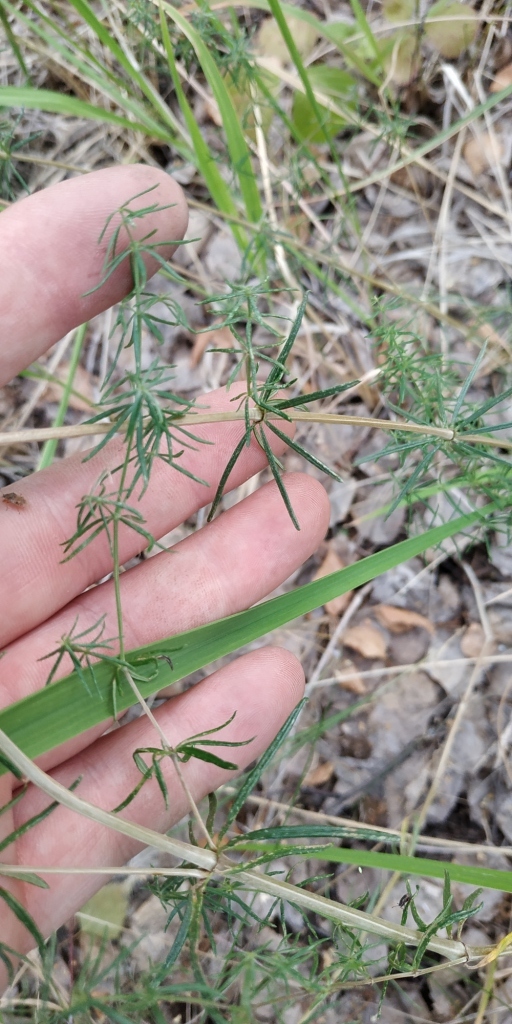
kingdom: Plantae
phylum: Tracheophyta
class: Magnoliopsida
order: Gentianales
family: Rubiaceae
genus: Galium
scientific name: Galium verum
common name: Lady's bedstraw
